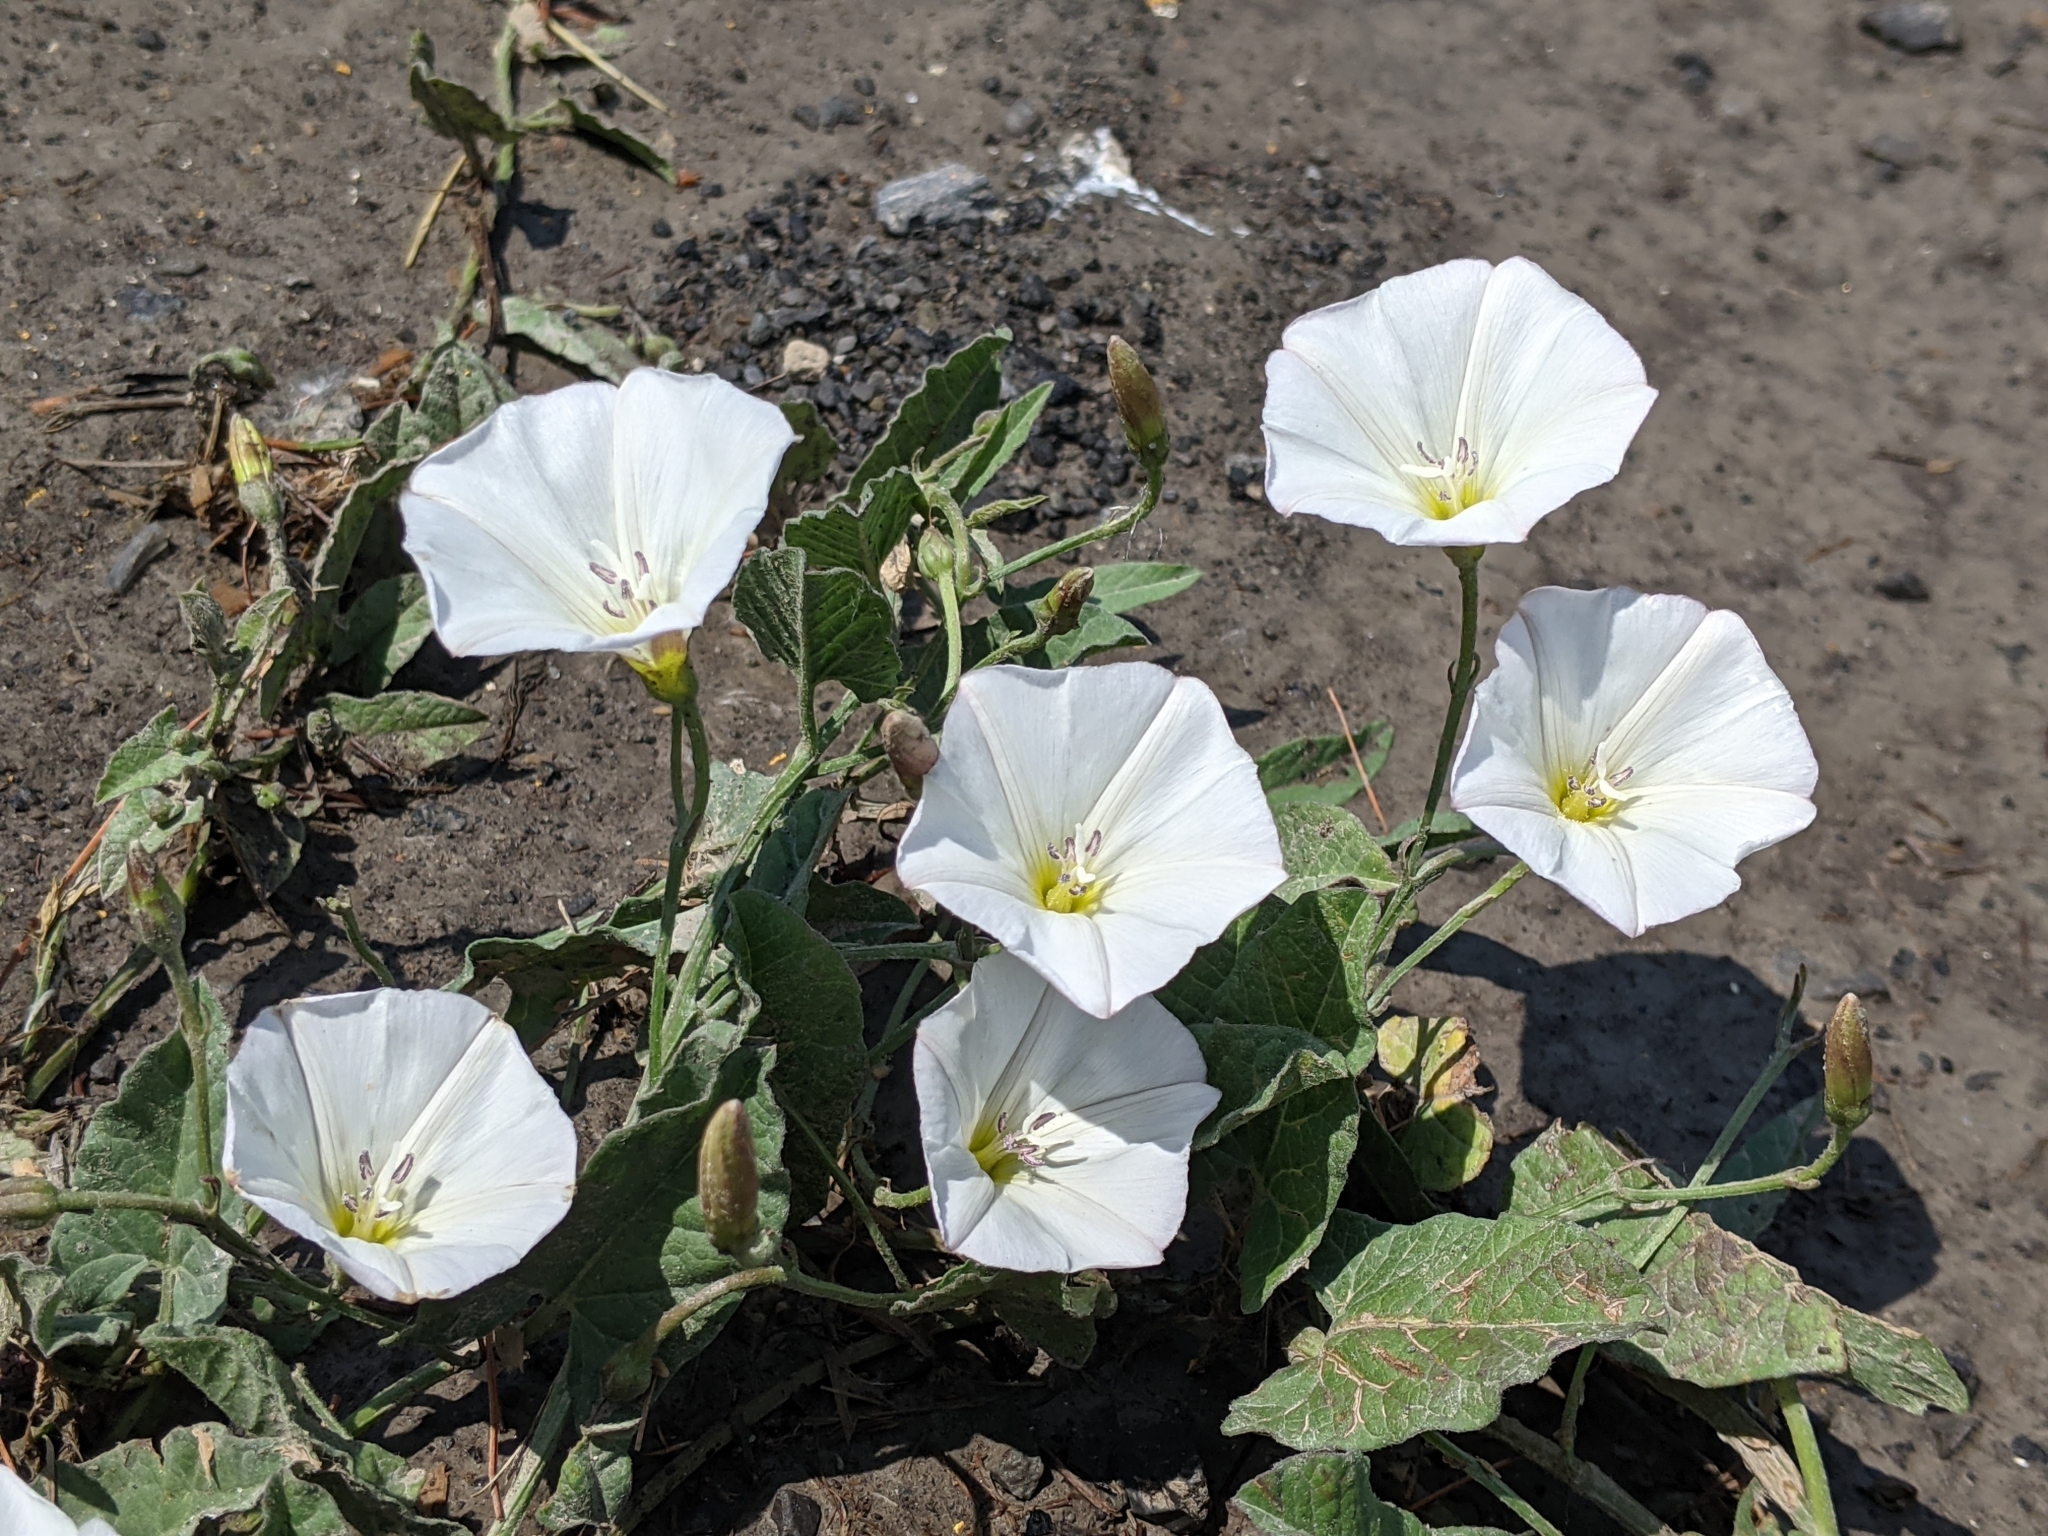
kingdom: Plantae
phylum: Tracheophyta
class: Magnoliopsida
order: Solanales
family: Convolvulaceae
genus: Convolvulus
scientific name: Convolvulus arvensis
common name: Field bindweed
